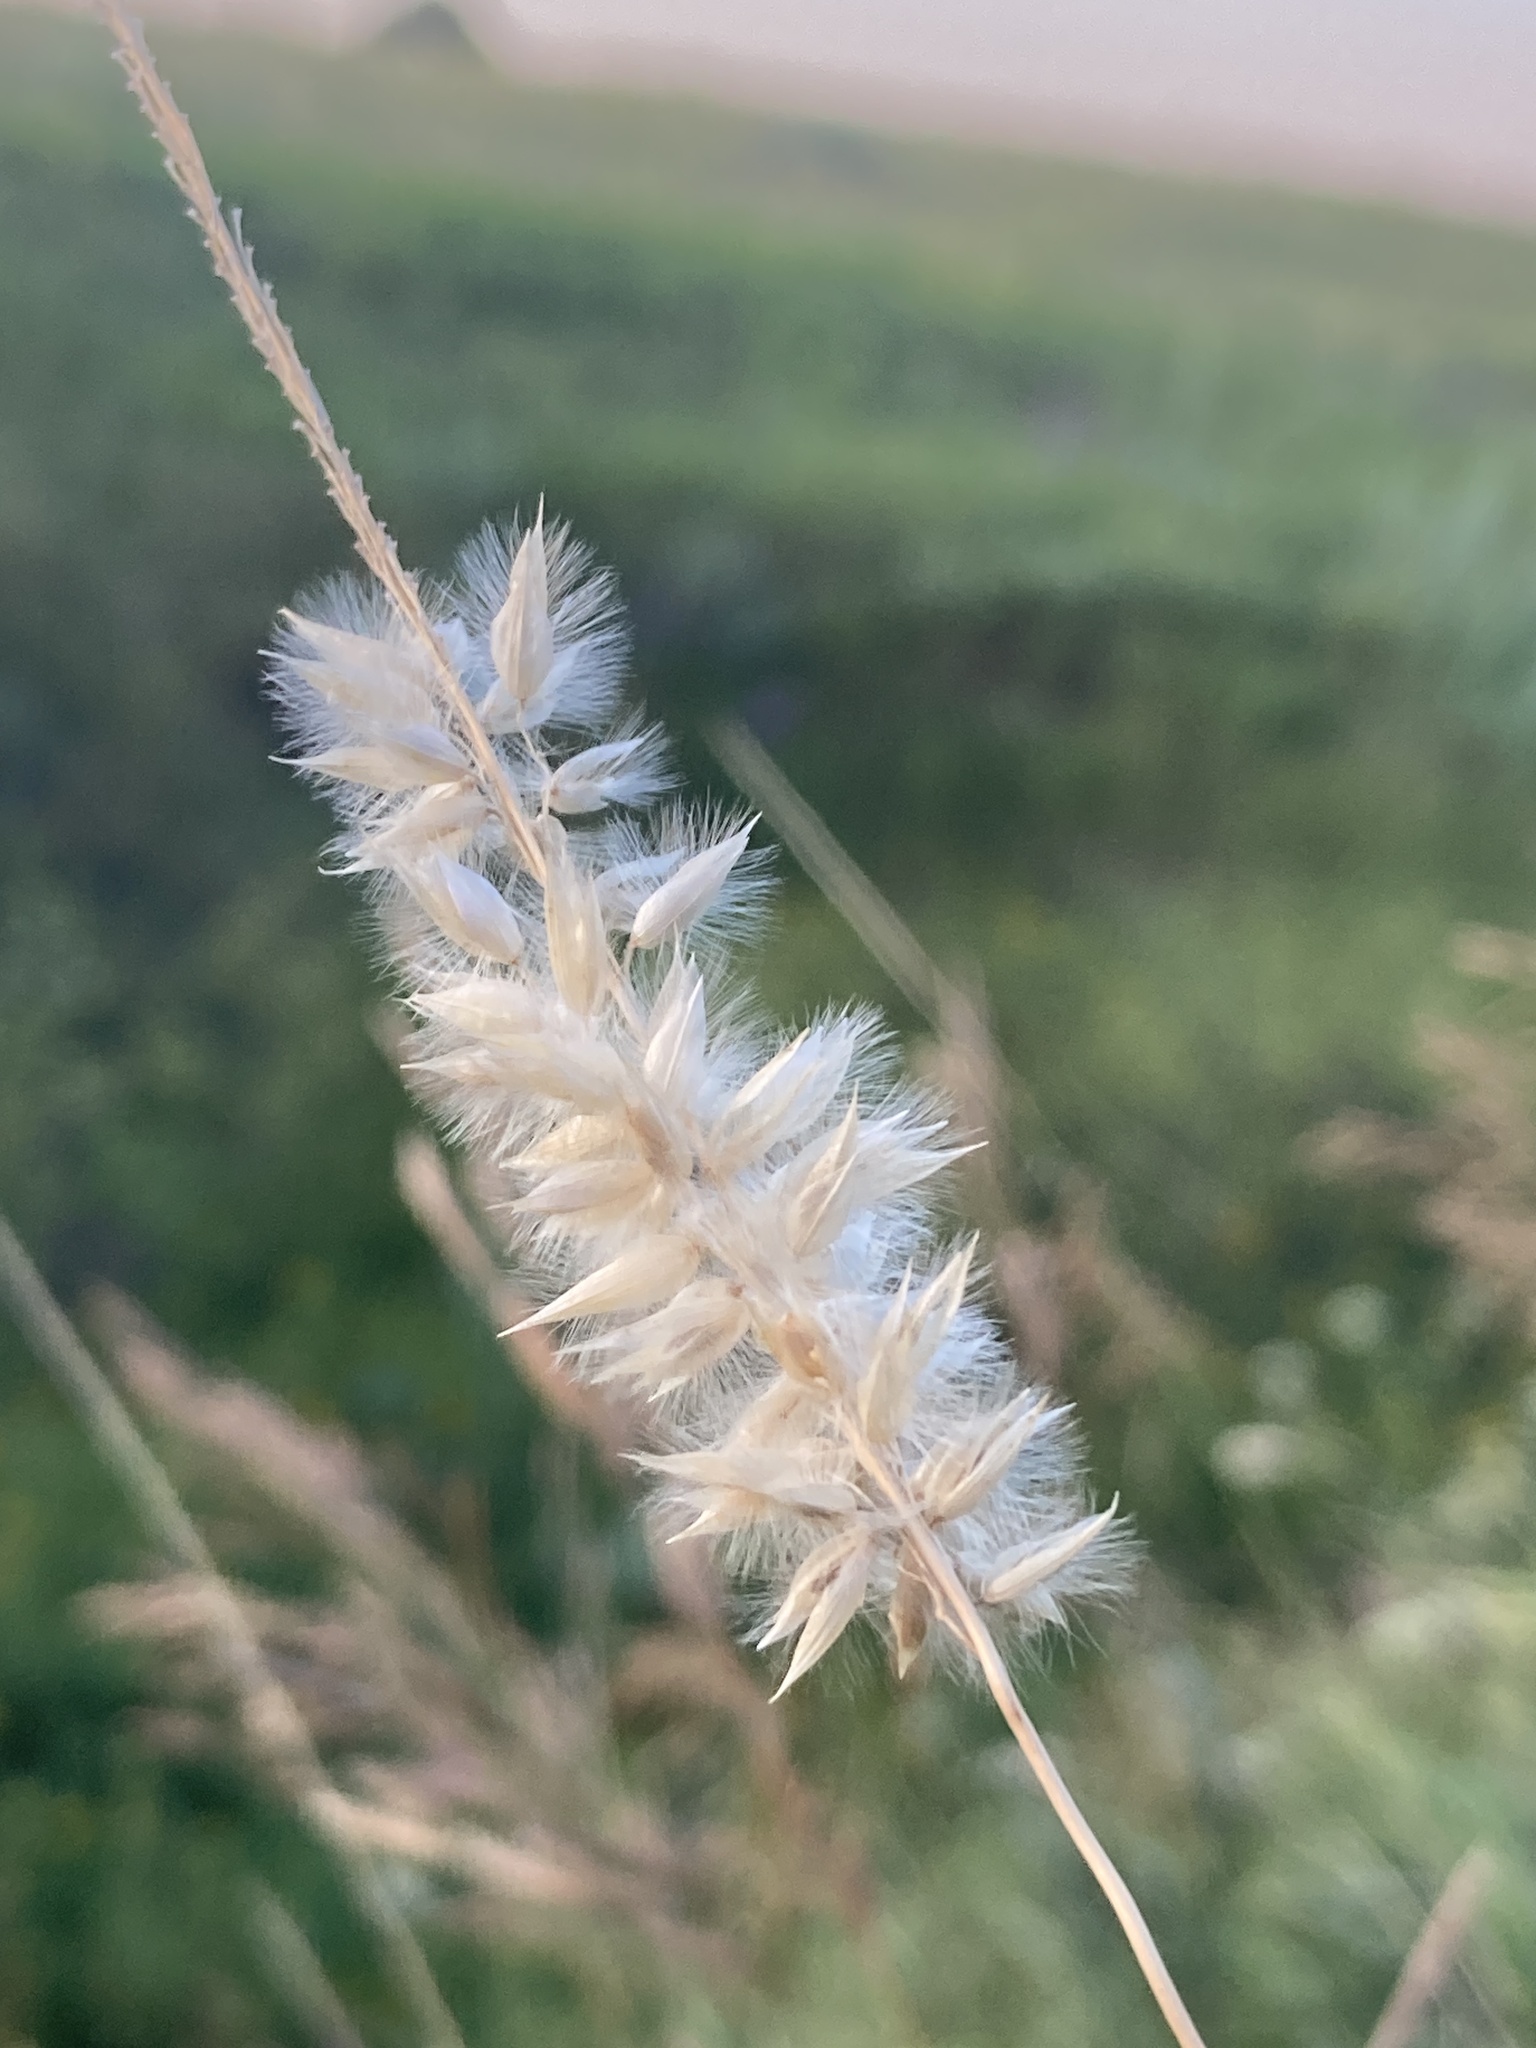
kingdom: Plantae
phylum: Tracheophyta
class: Liliopsida
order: Poales
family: Poaceae
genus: Melica
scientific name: Melica transsilvanica
